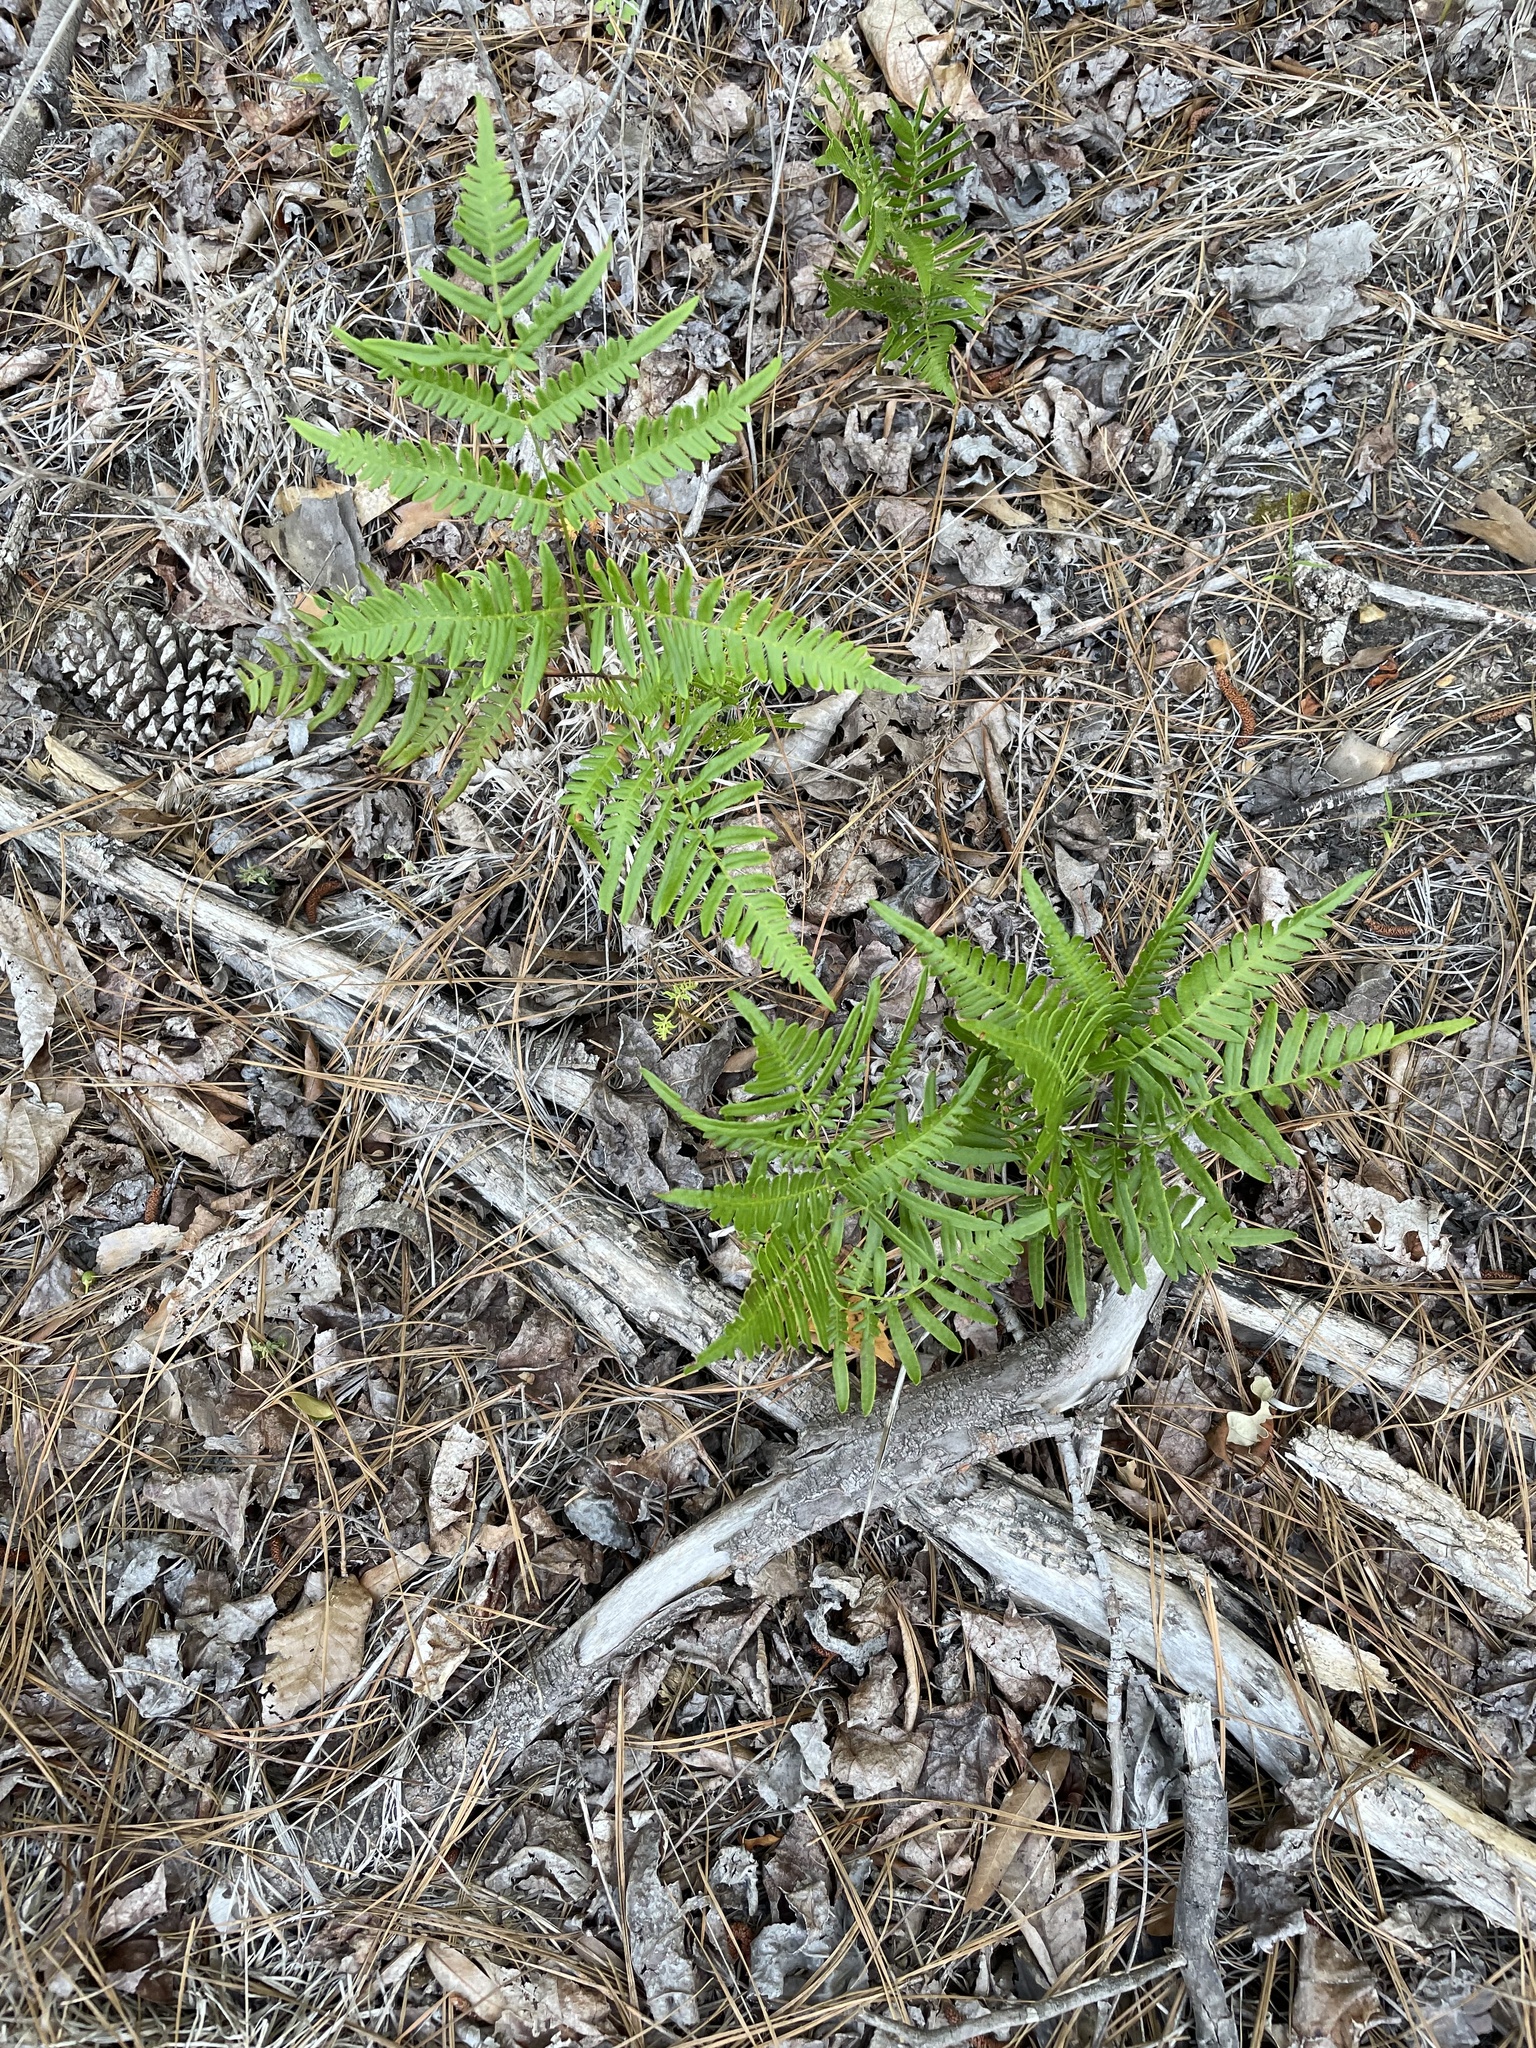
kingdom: Plantae
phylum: Tracheophyta
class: Polypodiopsida
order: Polypodiales
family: Dennstaedtiaceae
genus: Pteridium
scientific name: Pteridium aquilinum
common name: Bracken
